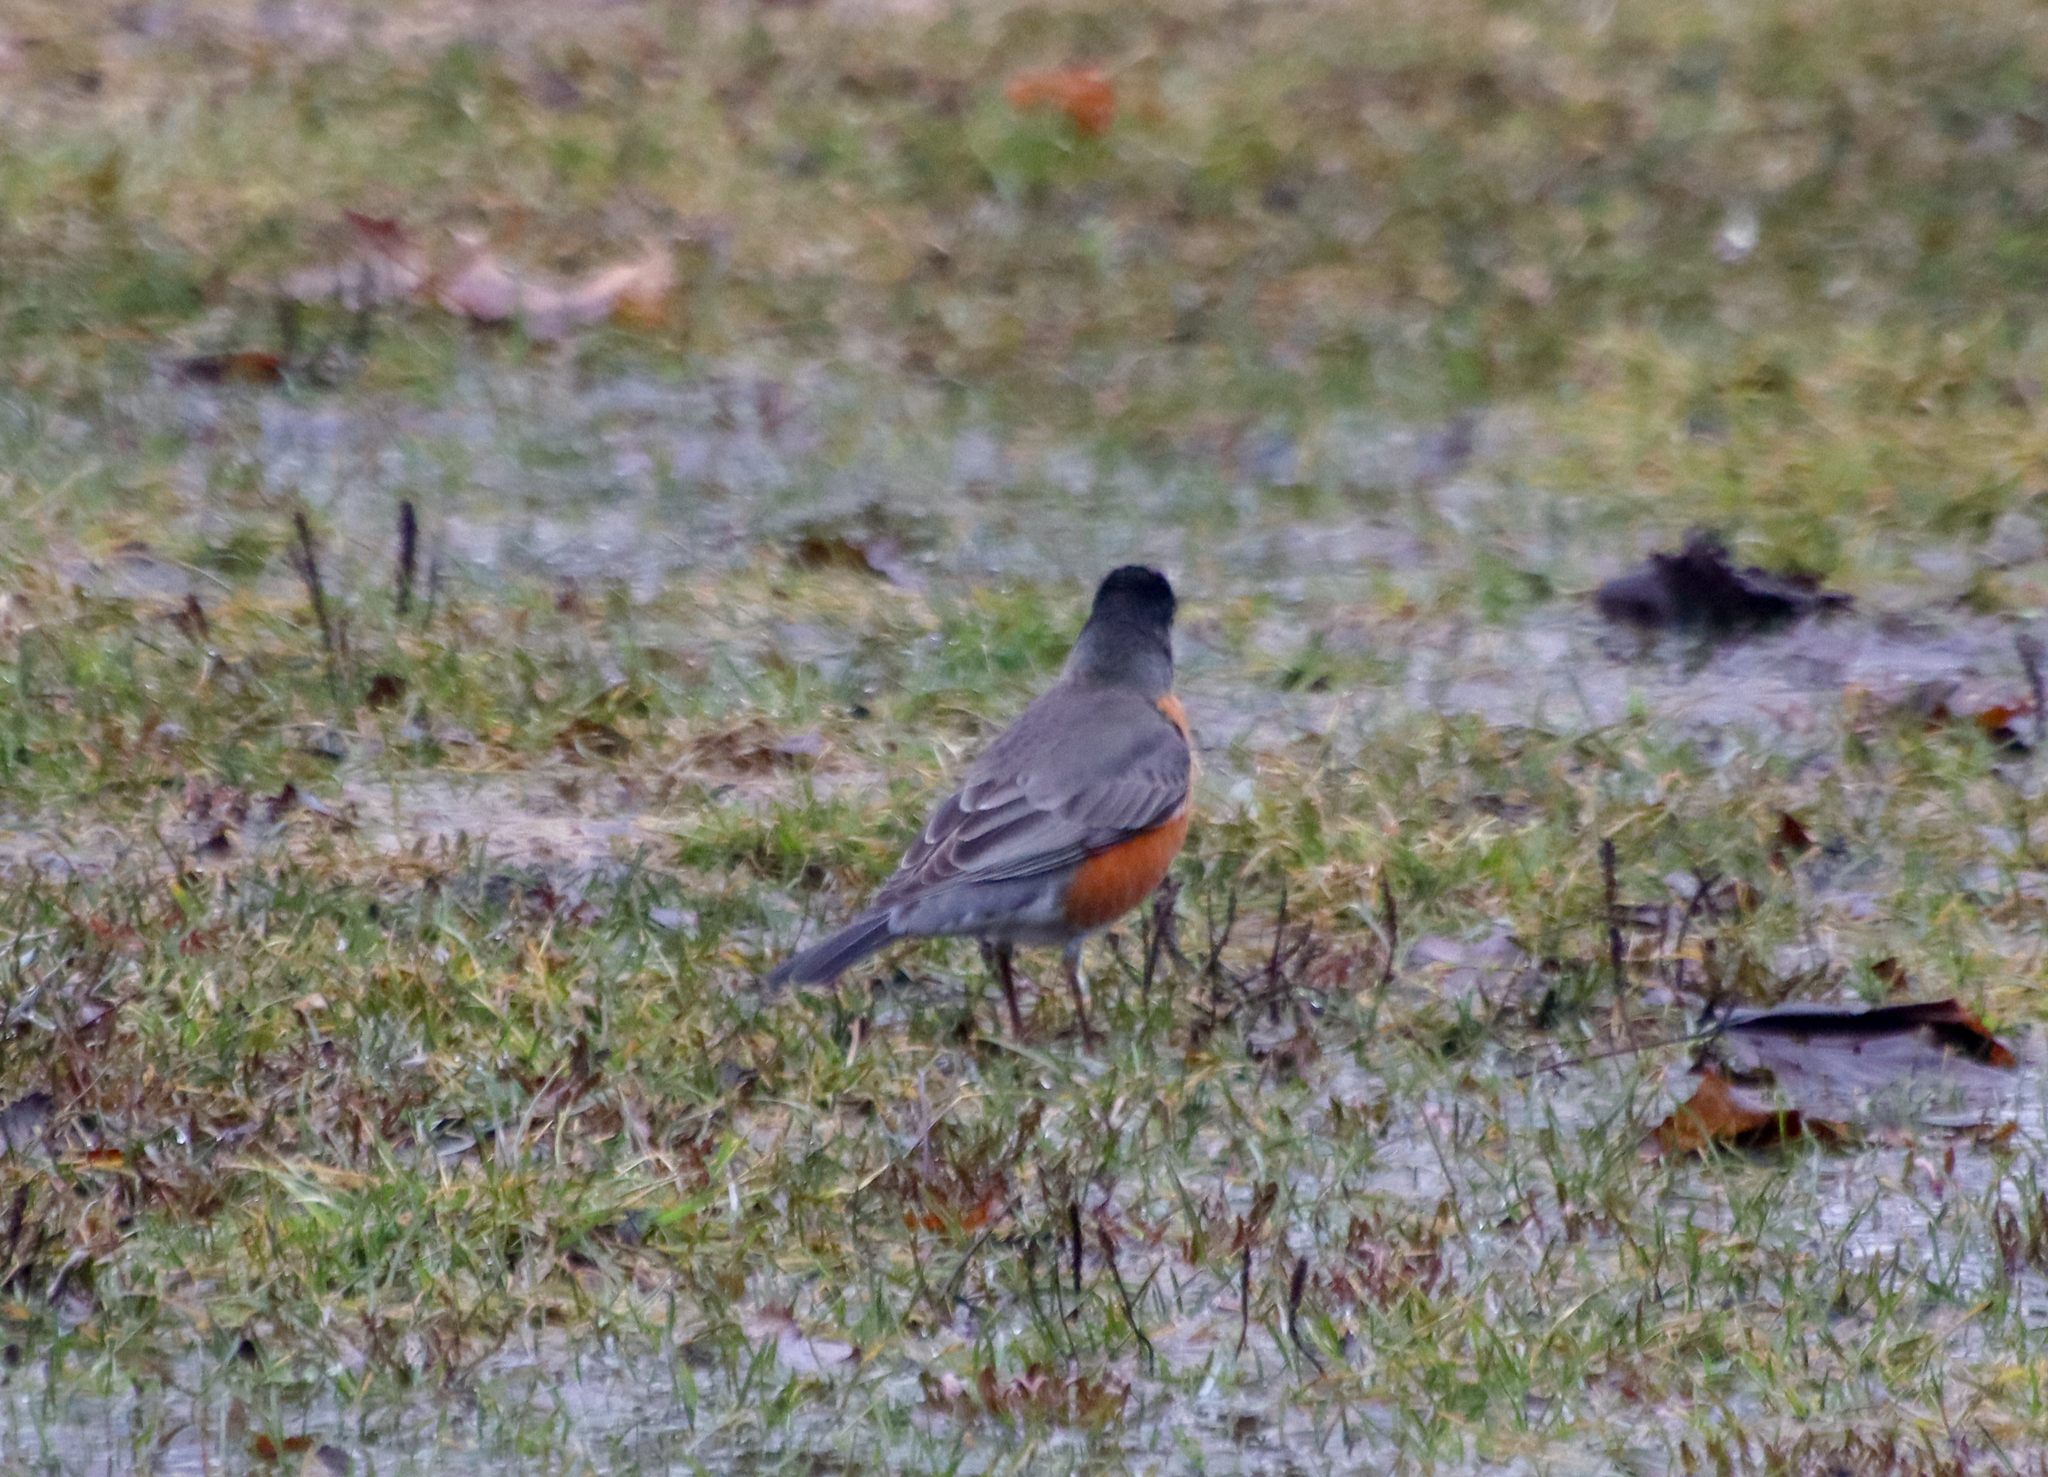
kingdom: Animalia
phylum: Chordata
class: Aves
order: Passeriformes
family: Turdidae
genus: Turdus
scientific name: Turdus migratorius
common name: American robin
